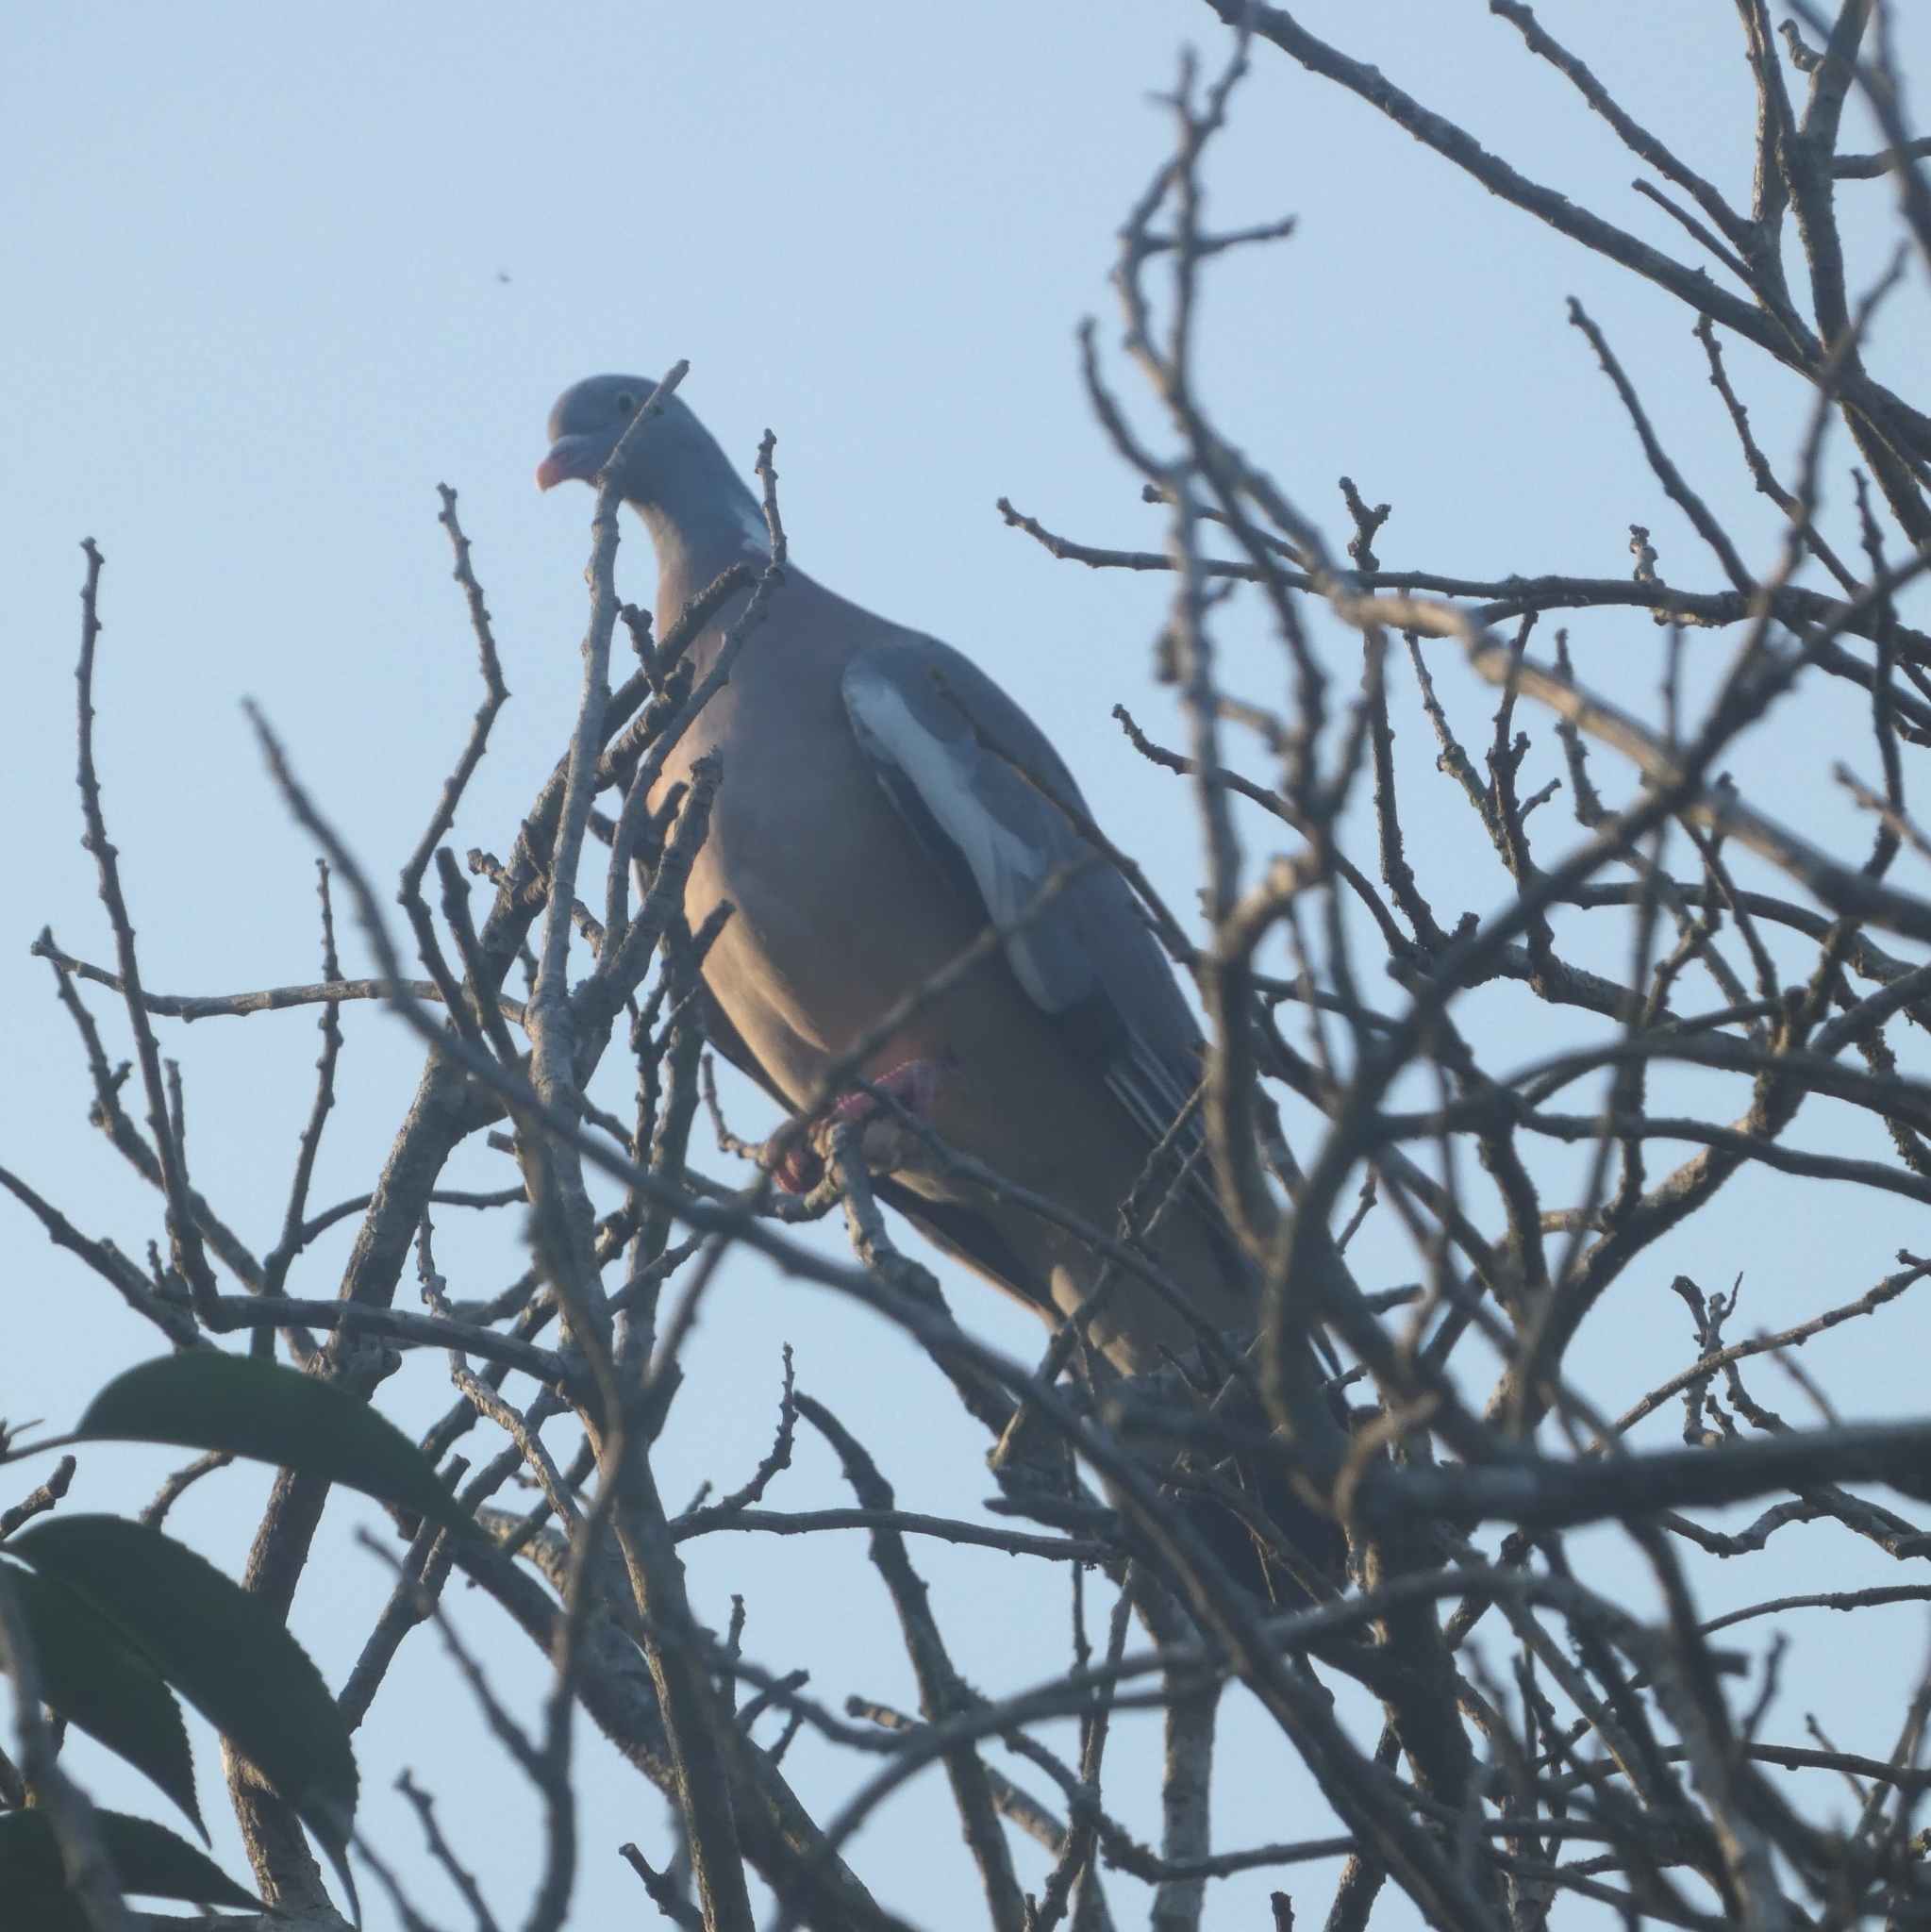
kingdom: Animalia
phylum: Chordata
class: Aves
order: Columbiformes
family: Columbidae
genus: Columba
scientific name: Columba palumbus
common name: Common wood pigeon
